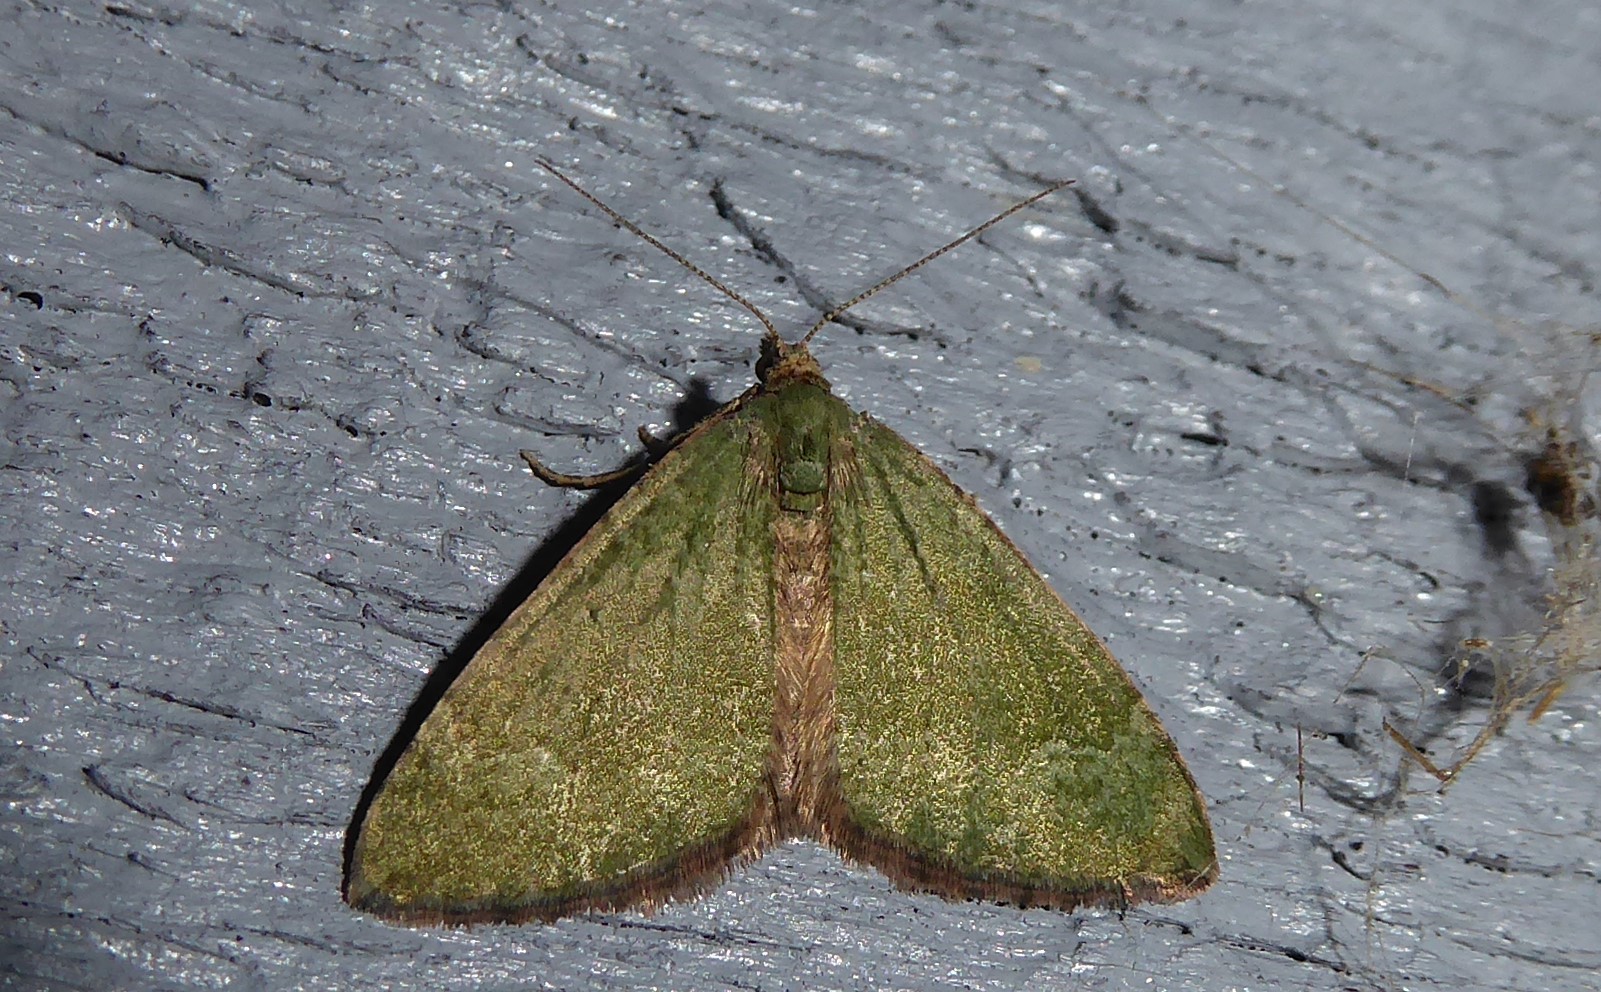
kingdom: Animalia
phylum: Arthropoda
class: Insecta
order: Lepidoptera
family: Geometridae
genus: Epyaxa
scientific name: Epyaxa rosearia
